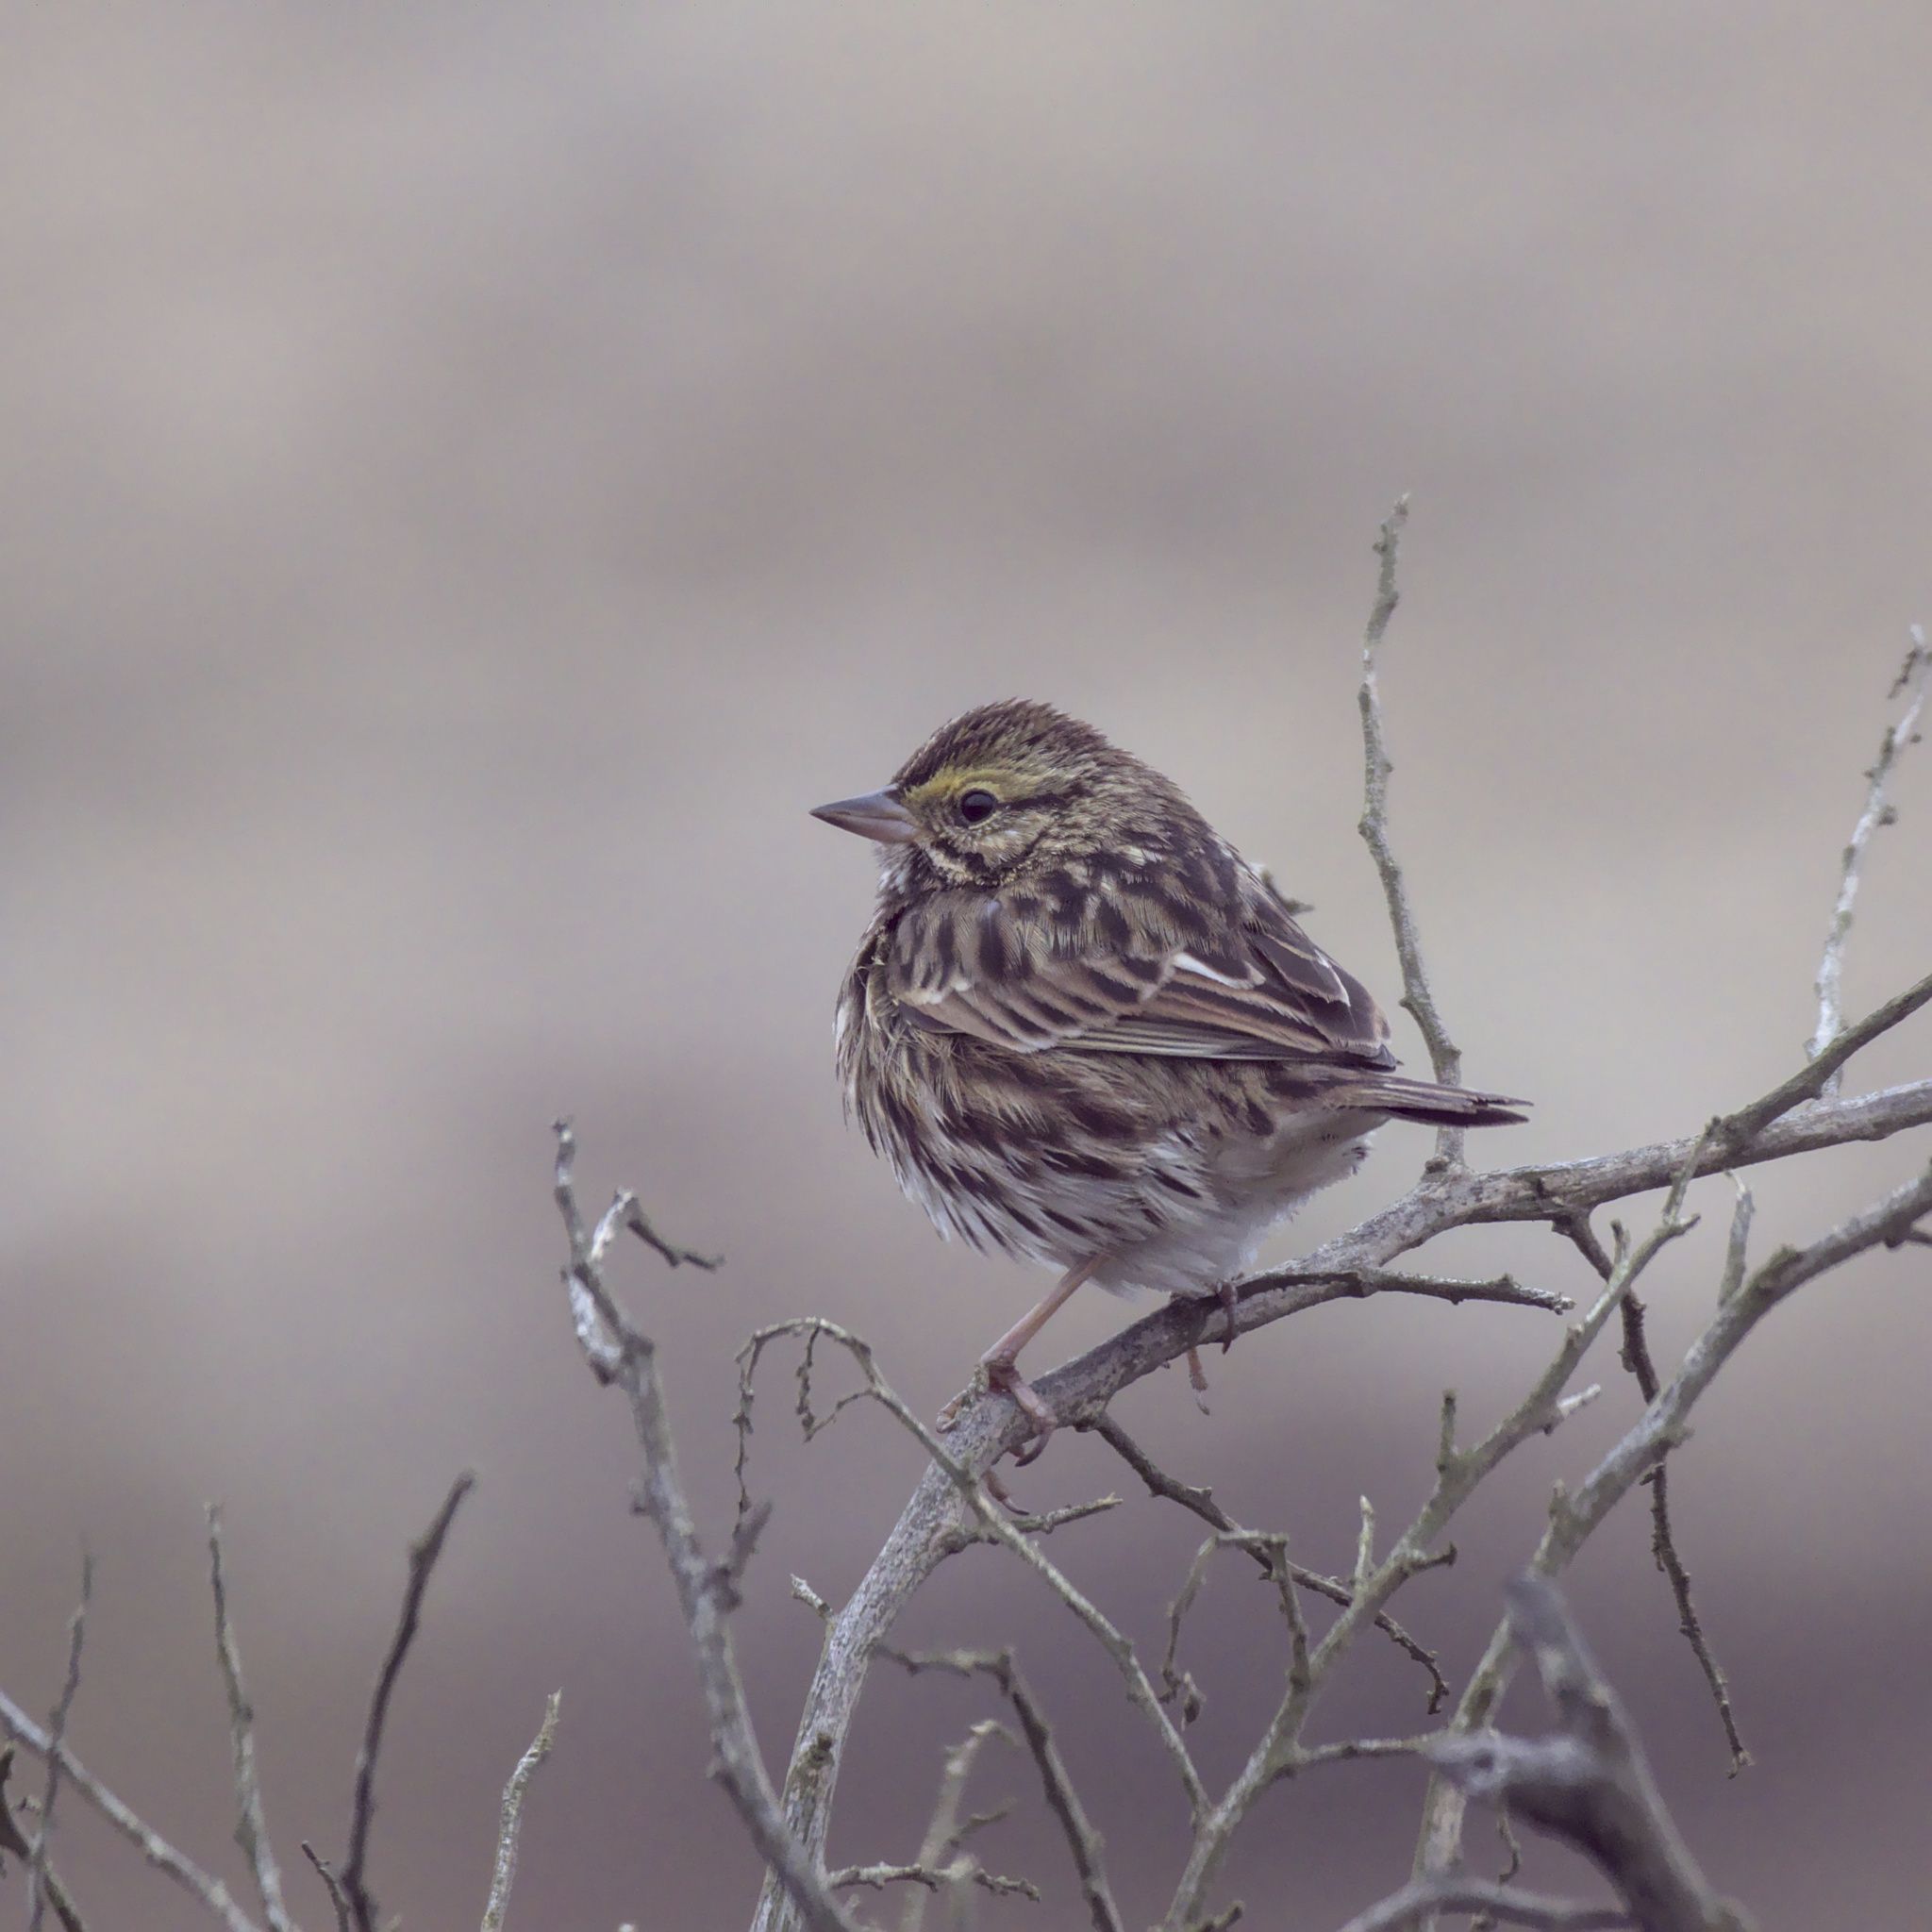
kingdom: Animalia
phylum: Chordata
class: Aves
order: Passeriformes
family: Passerellidae
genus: Passerculus
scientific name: Passerculus sandwichensis
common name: Savannah sparrow
